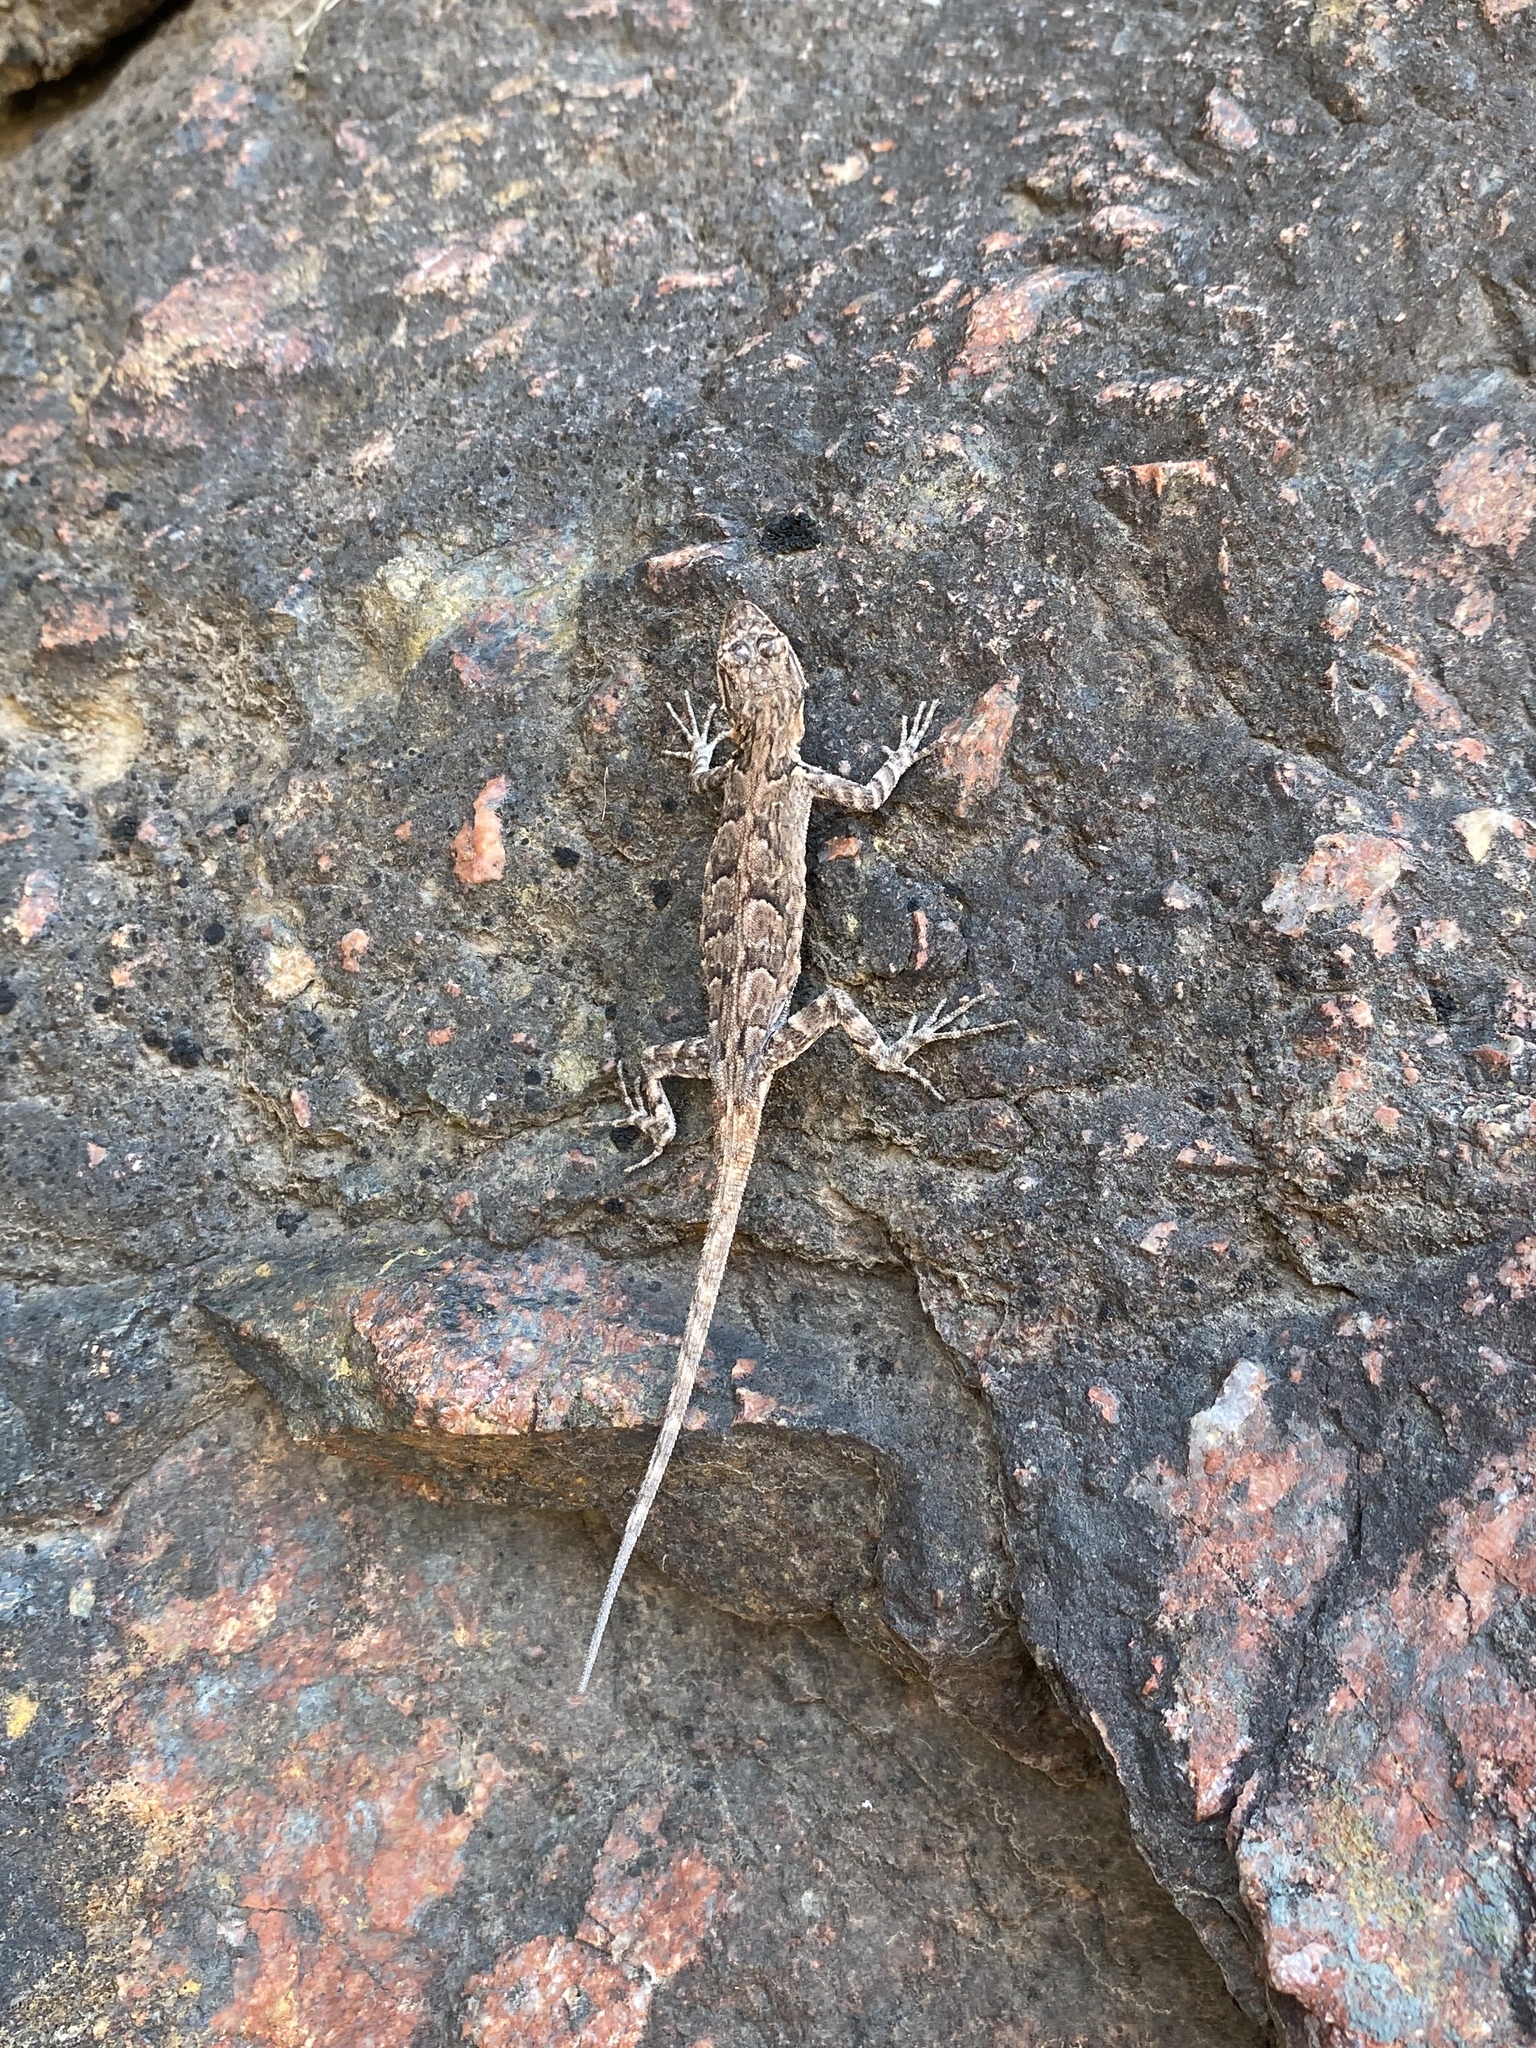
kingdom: Animalia
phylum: Chordata
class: Squamata
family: Phrynosomatidae
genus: Urosaurus
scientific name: Urosaurus ornatus
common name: Ornate tree lizard
